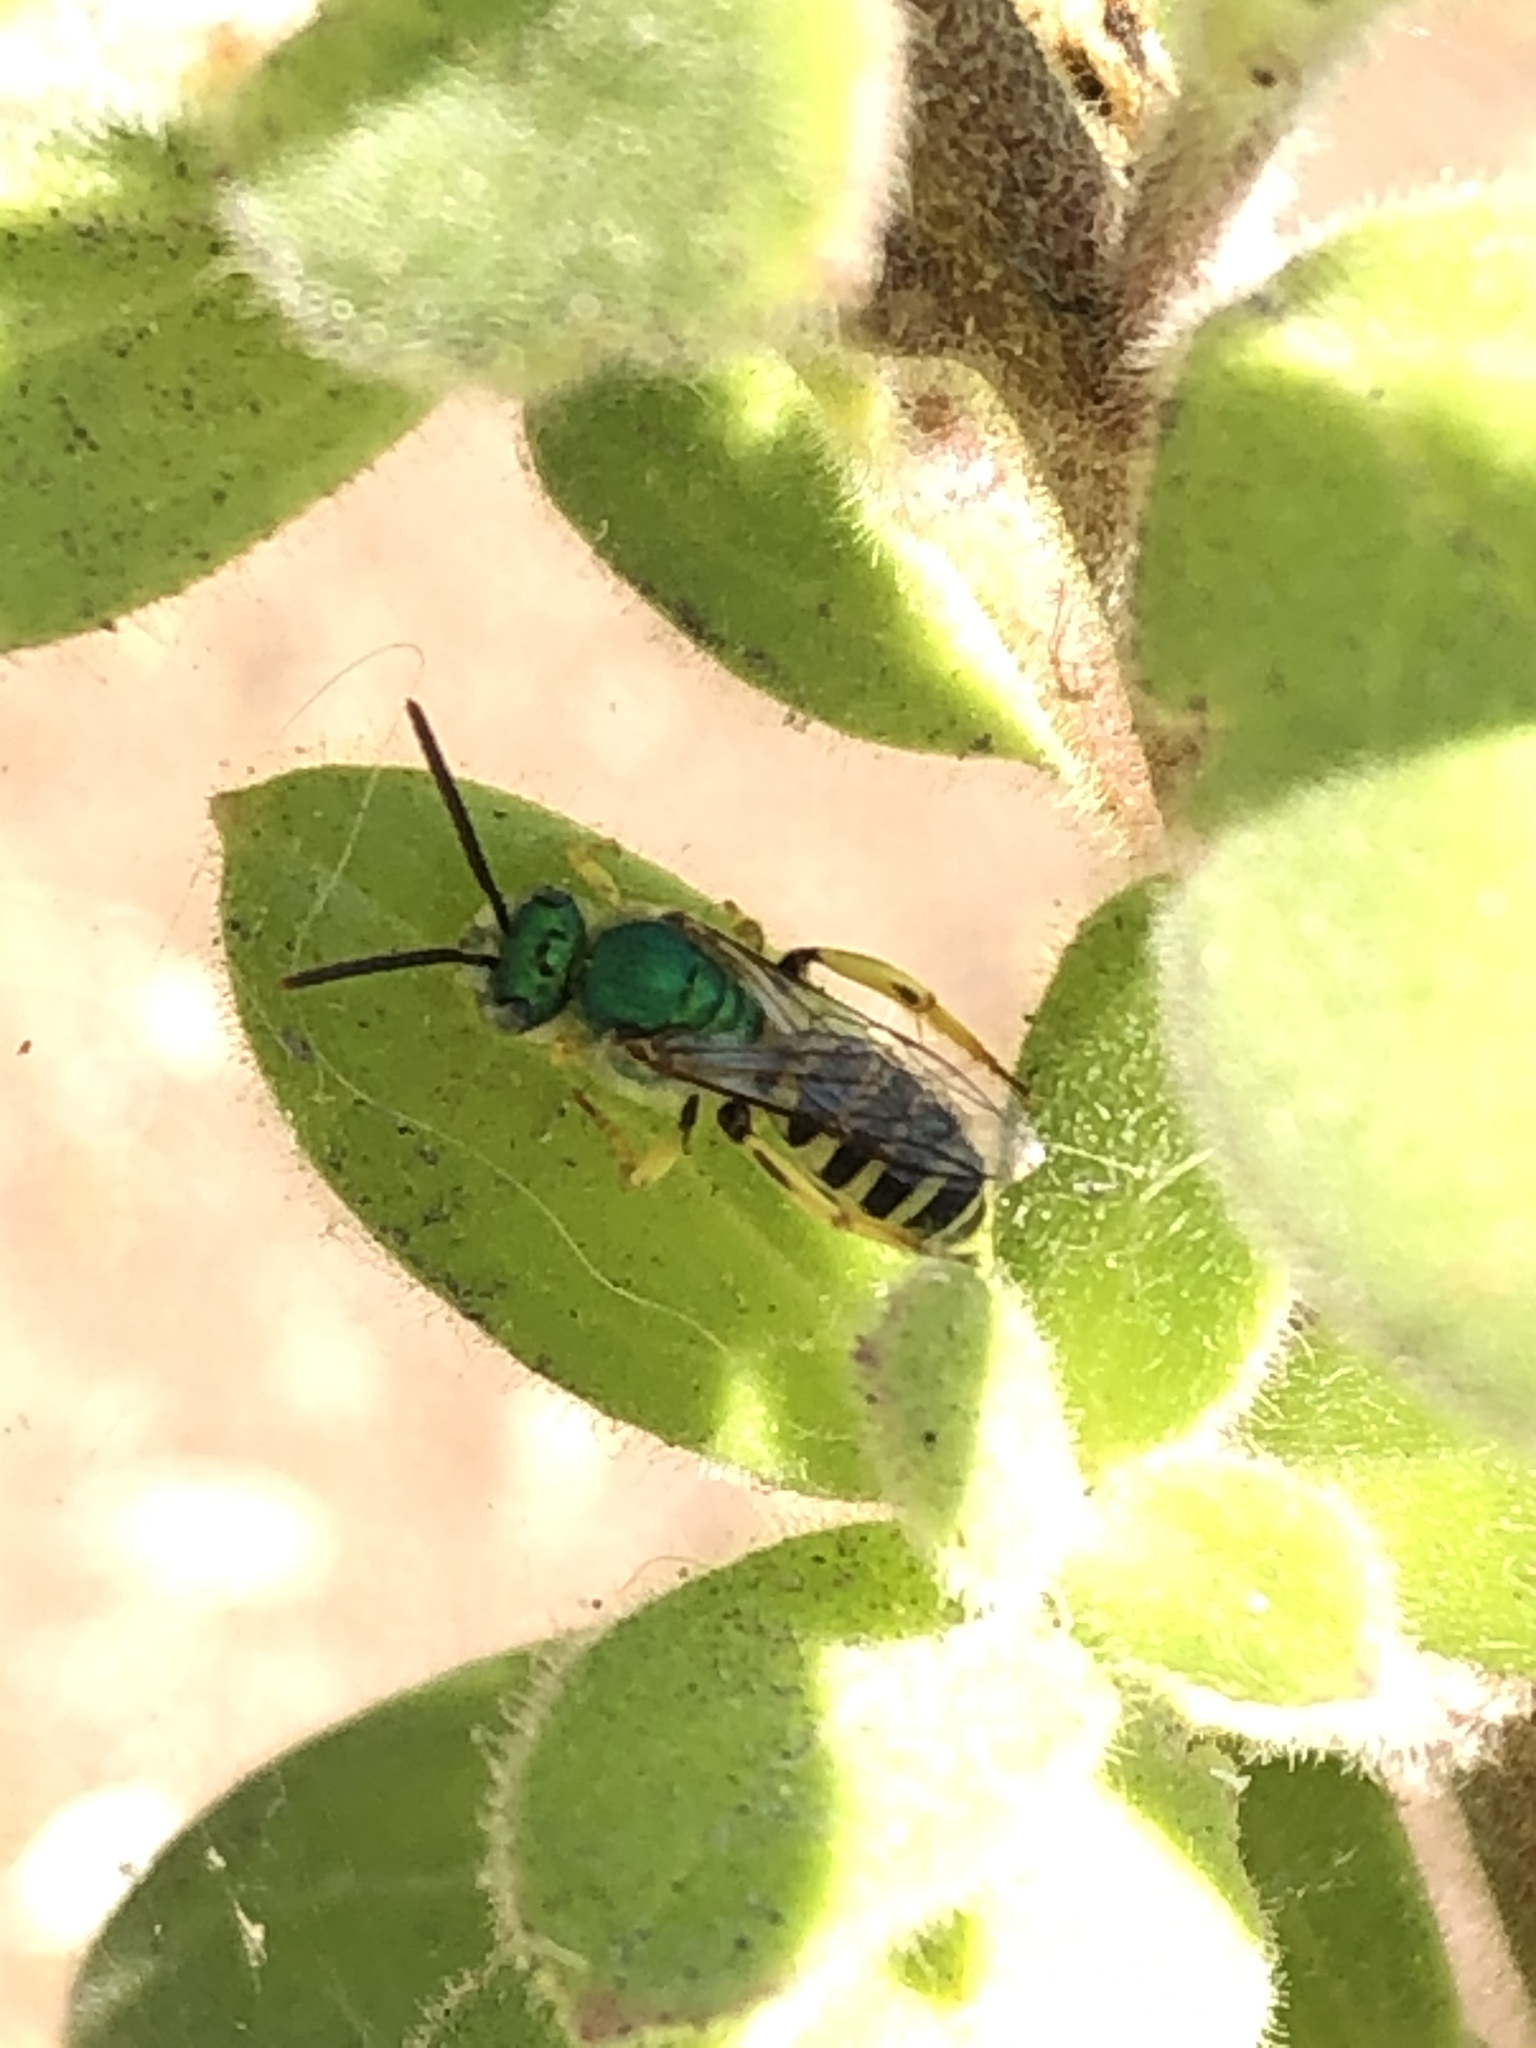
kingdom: Animalia
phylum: Arthropoda
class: Insecta
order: Hymenoptera
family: Halictidae
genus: Agapostemon
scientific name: Agapostemon texanus
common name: Texas striped sweat bee
